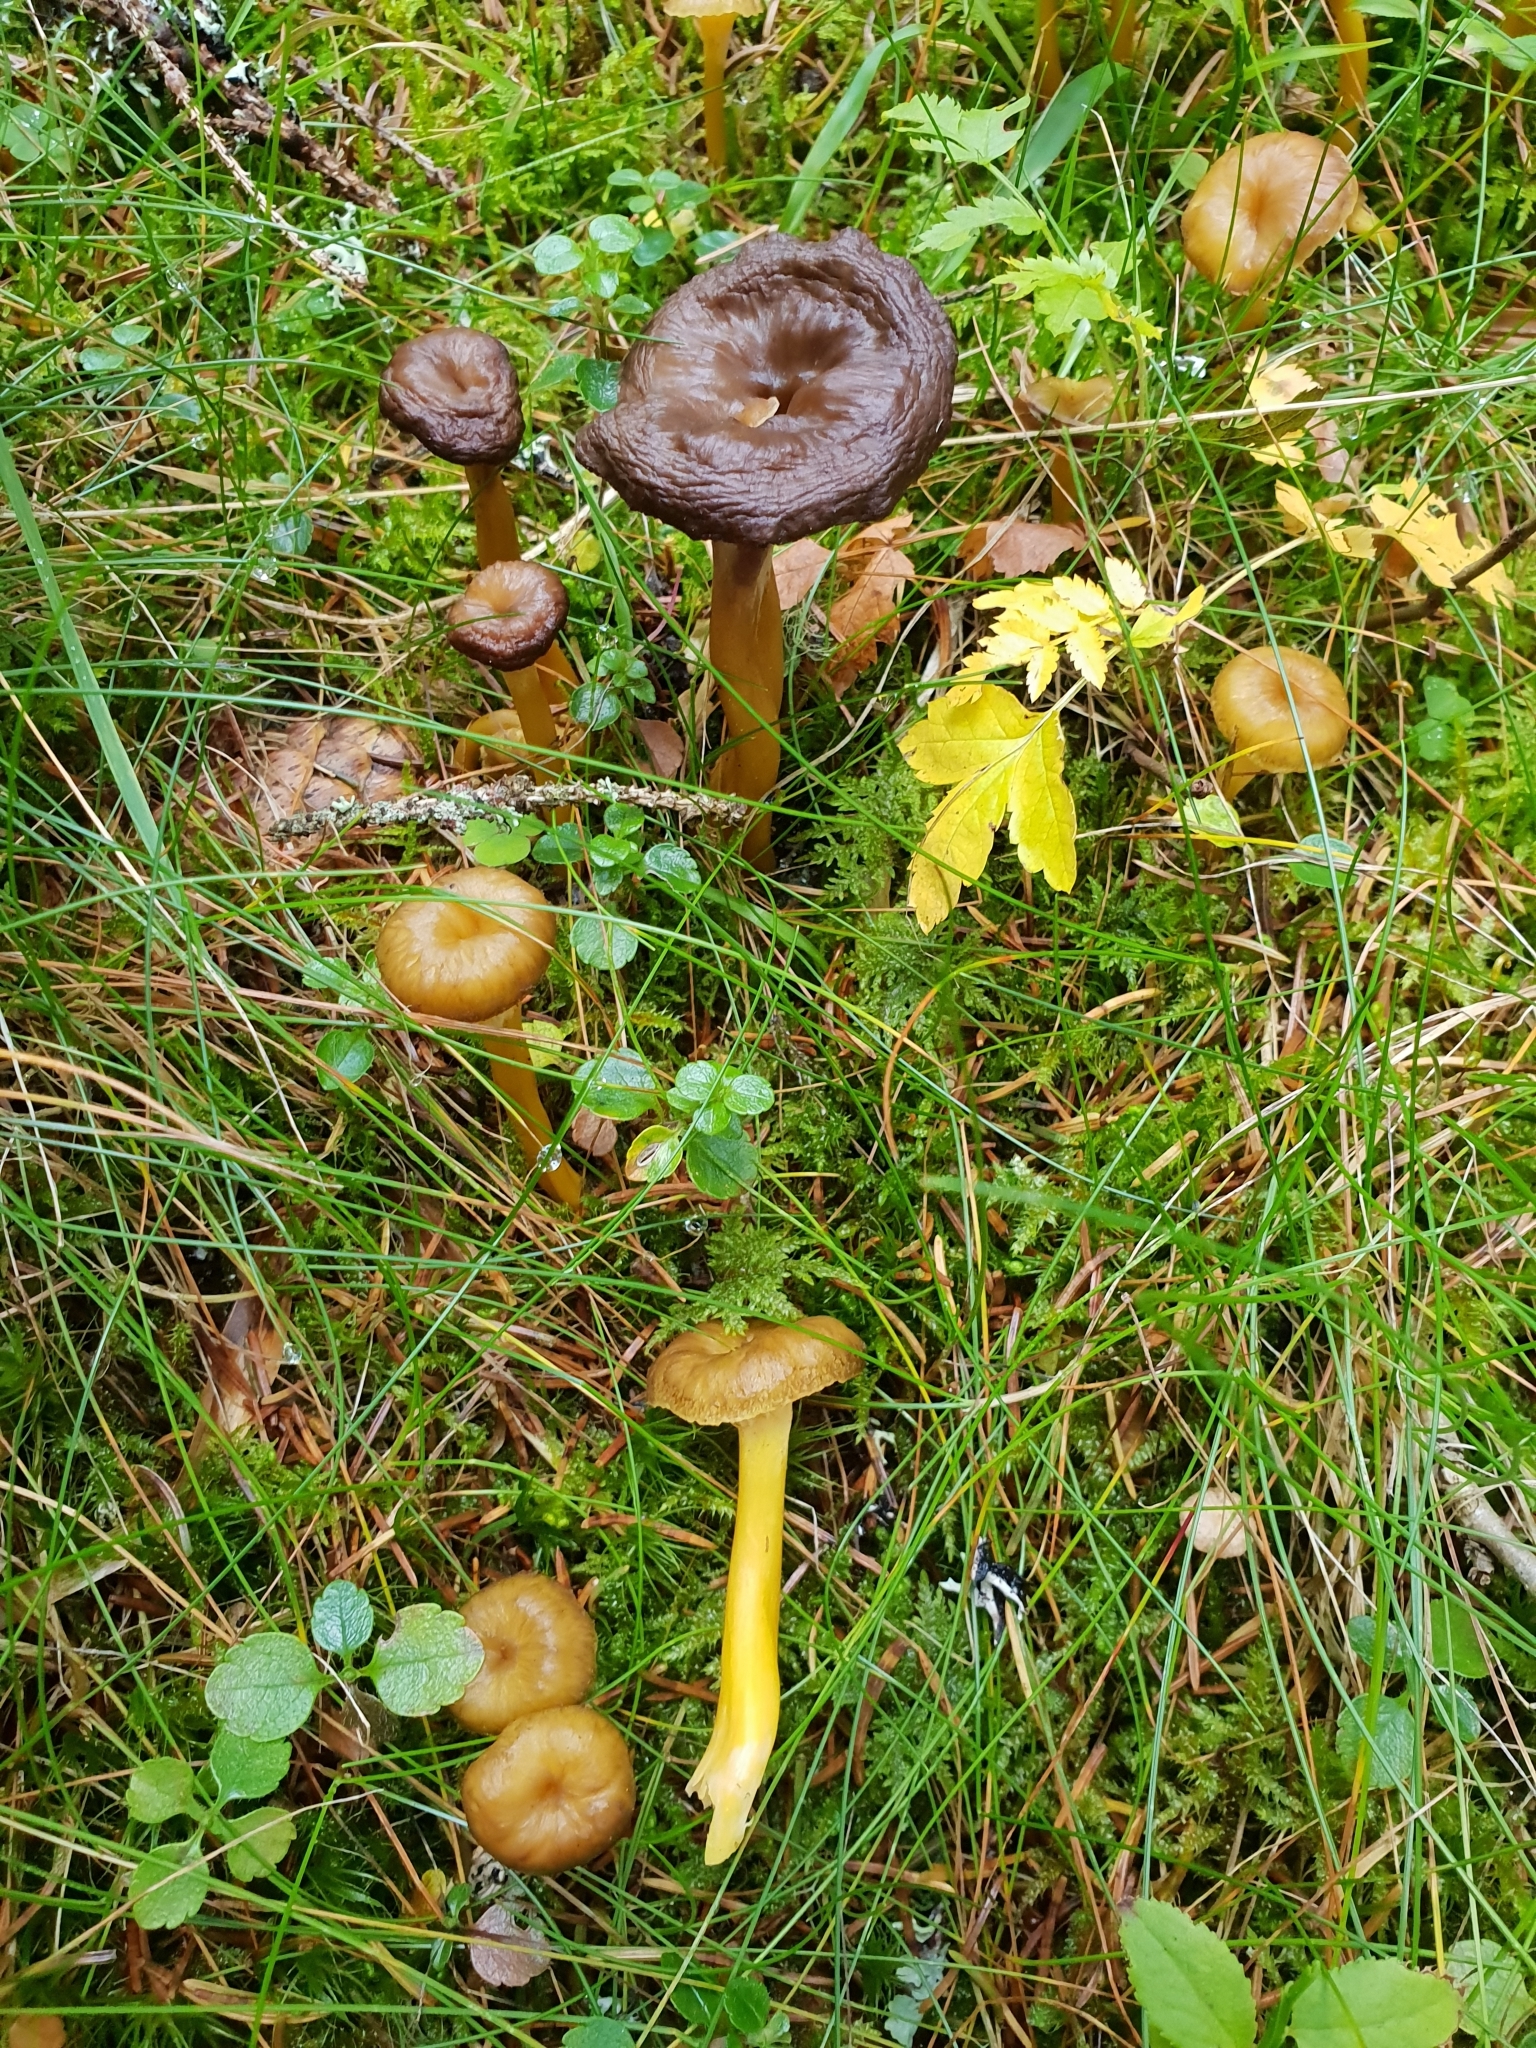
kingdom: Fungi
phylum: Basidiomycota
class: Agaricomycetes
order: Cantharellales
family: Hydnaceae
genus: Craterellus
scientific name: Craterellus tubaeformis
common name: Yellowfoot
